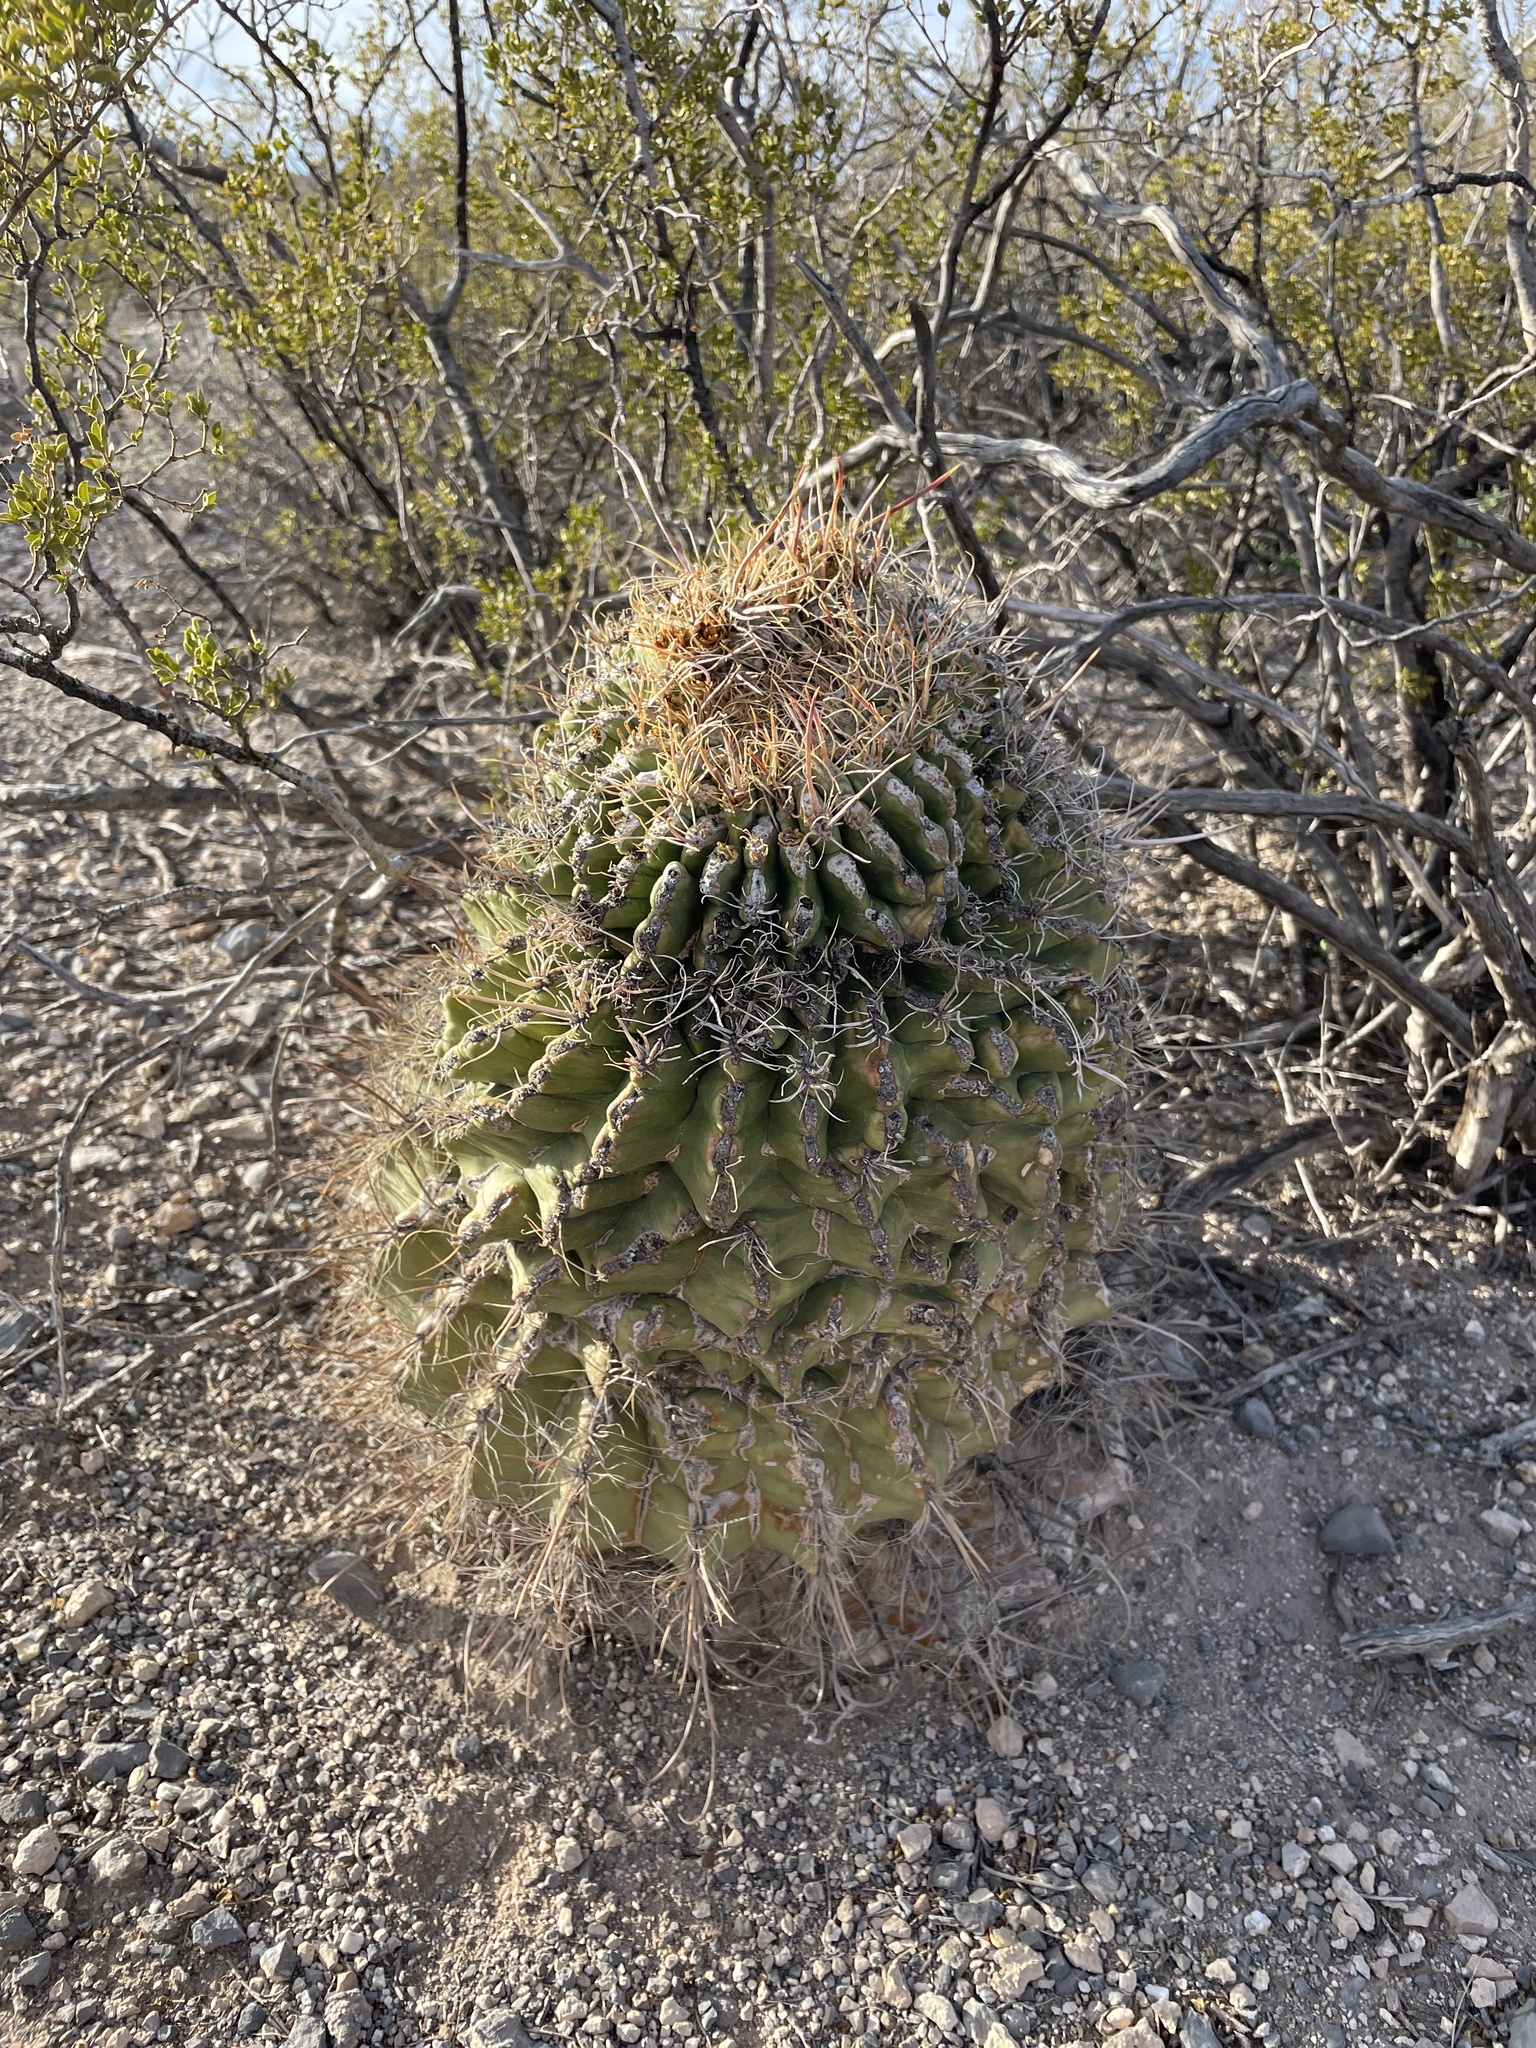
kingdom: Plantae
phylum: Tracheophyta
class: Magnoliopsida
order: Caryophyllales
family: Cactaceae
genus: Ferocactus
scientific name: Ferocactus wislizeni
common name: Candy barrel cactus
